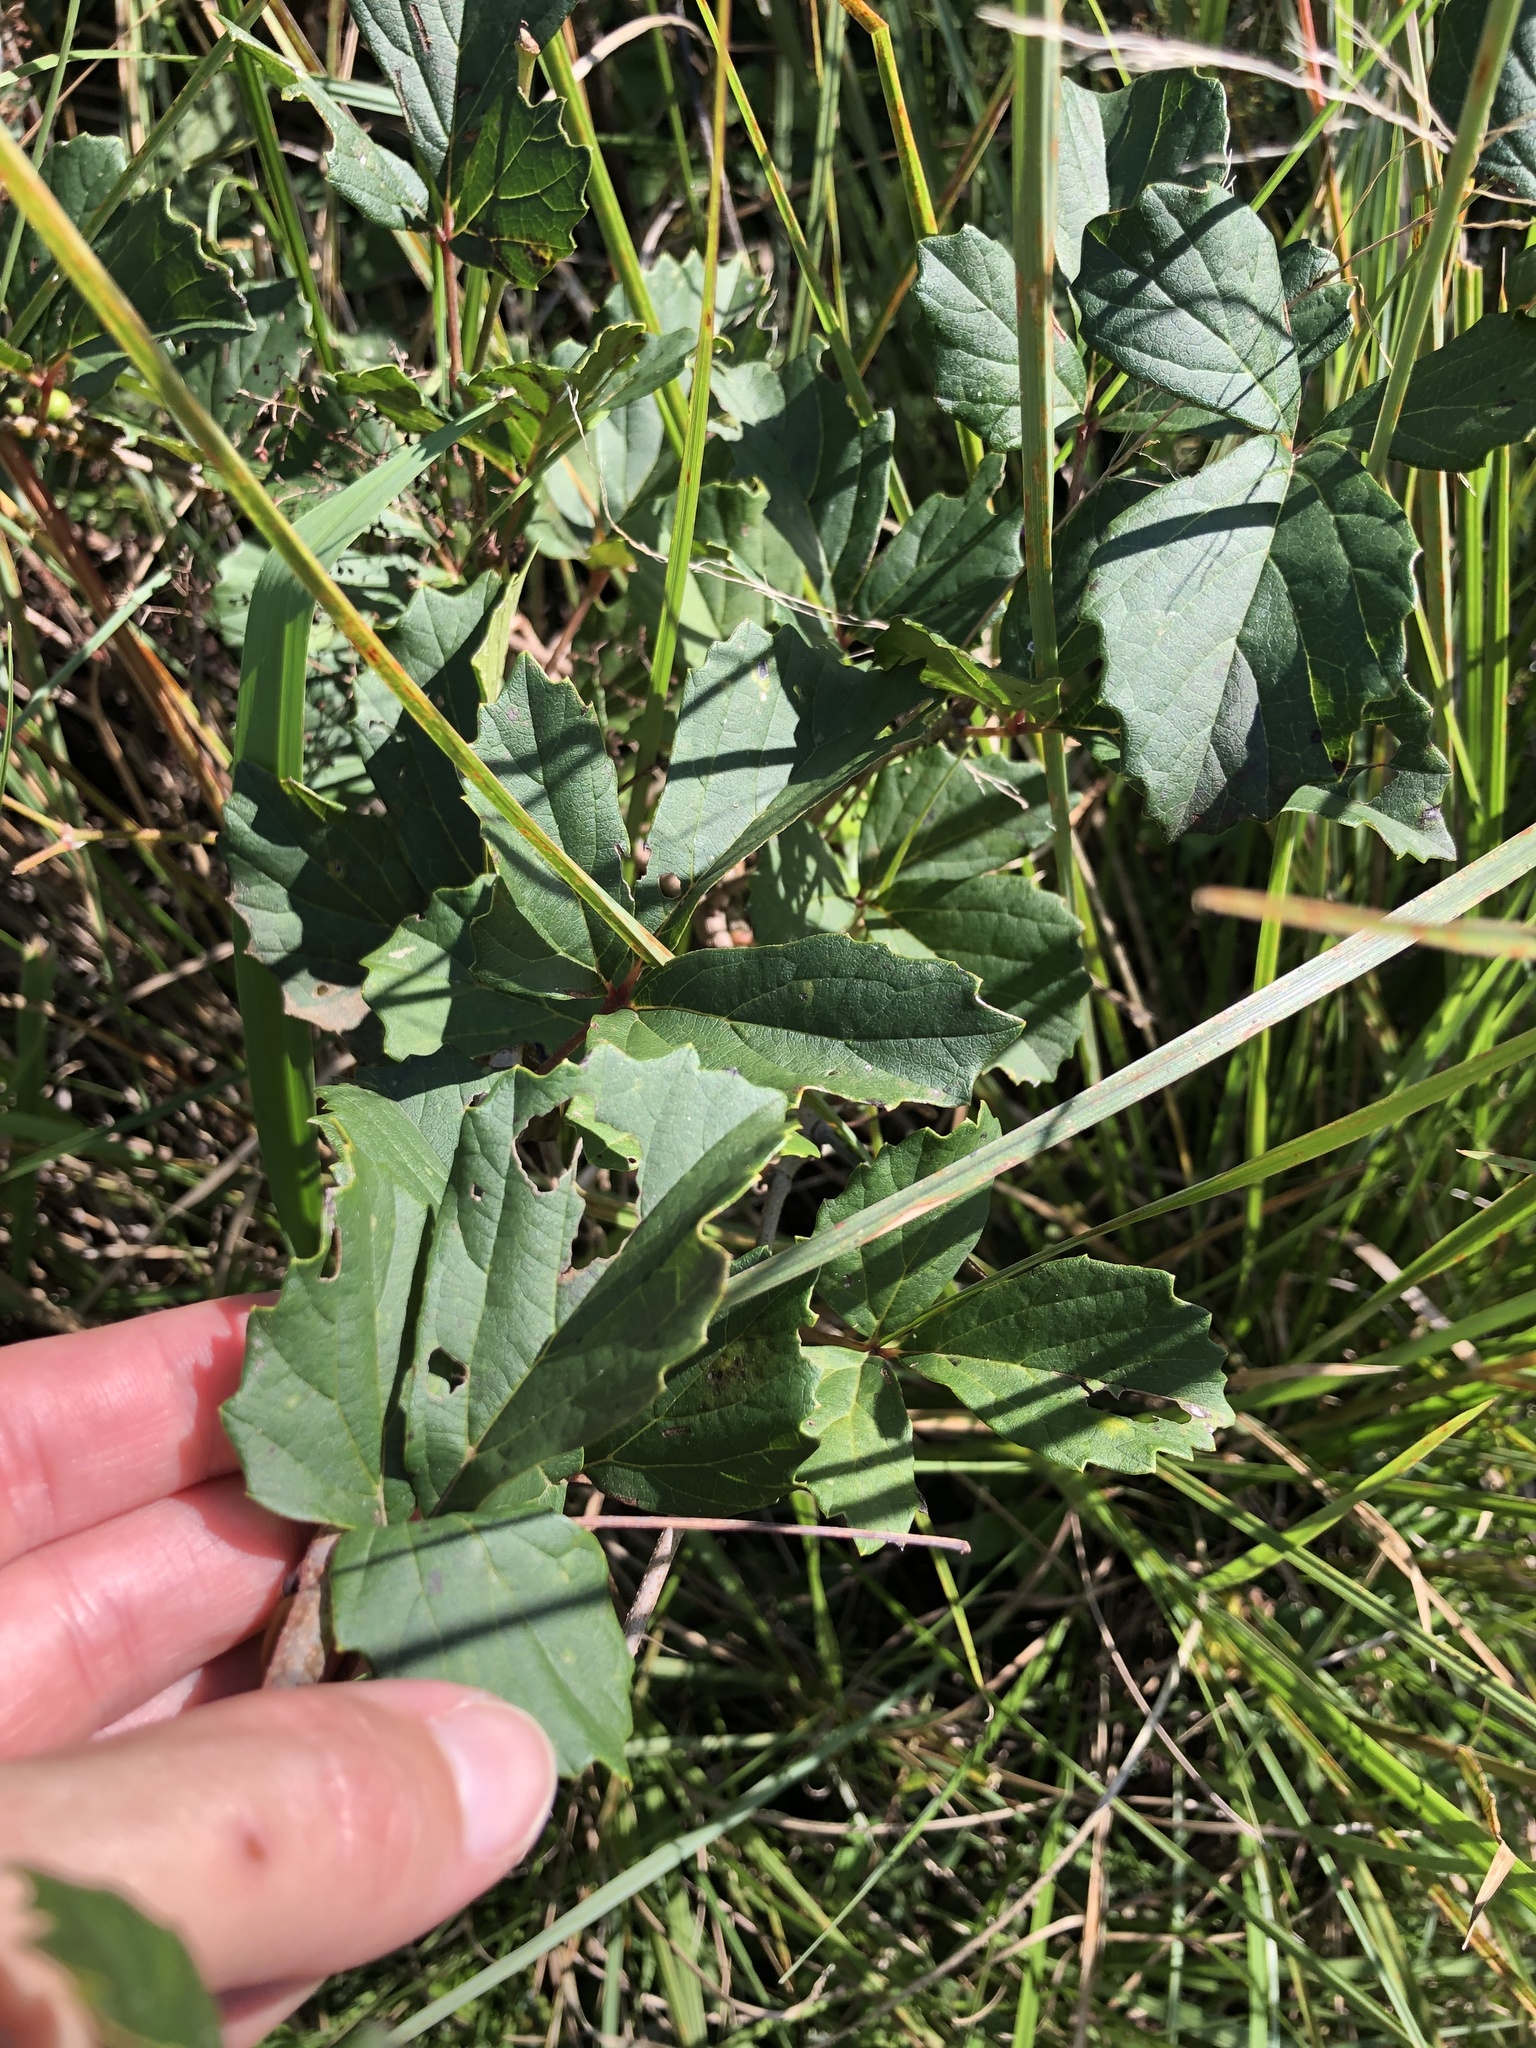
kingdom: Plantae
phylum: Tracheophyta
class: Magnoliopsida
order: Vitales
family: Vitaceae
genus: Rhoicissus
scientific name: Rhoicissus tridentata
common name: Common forest grape
